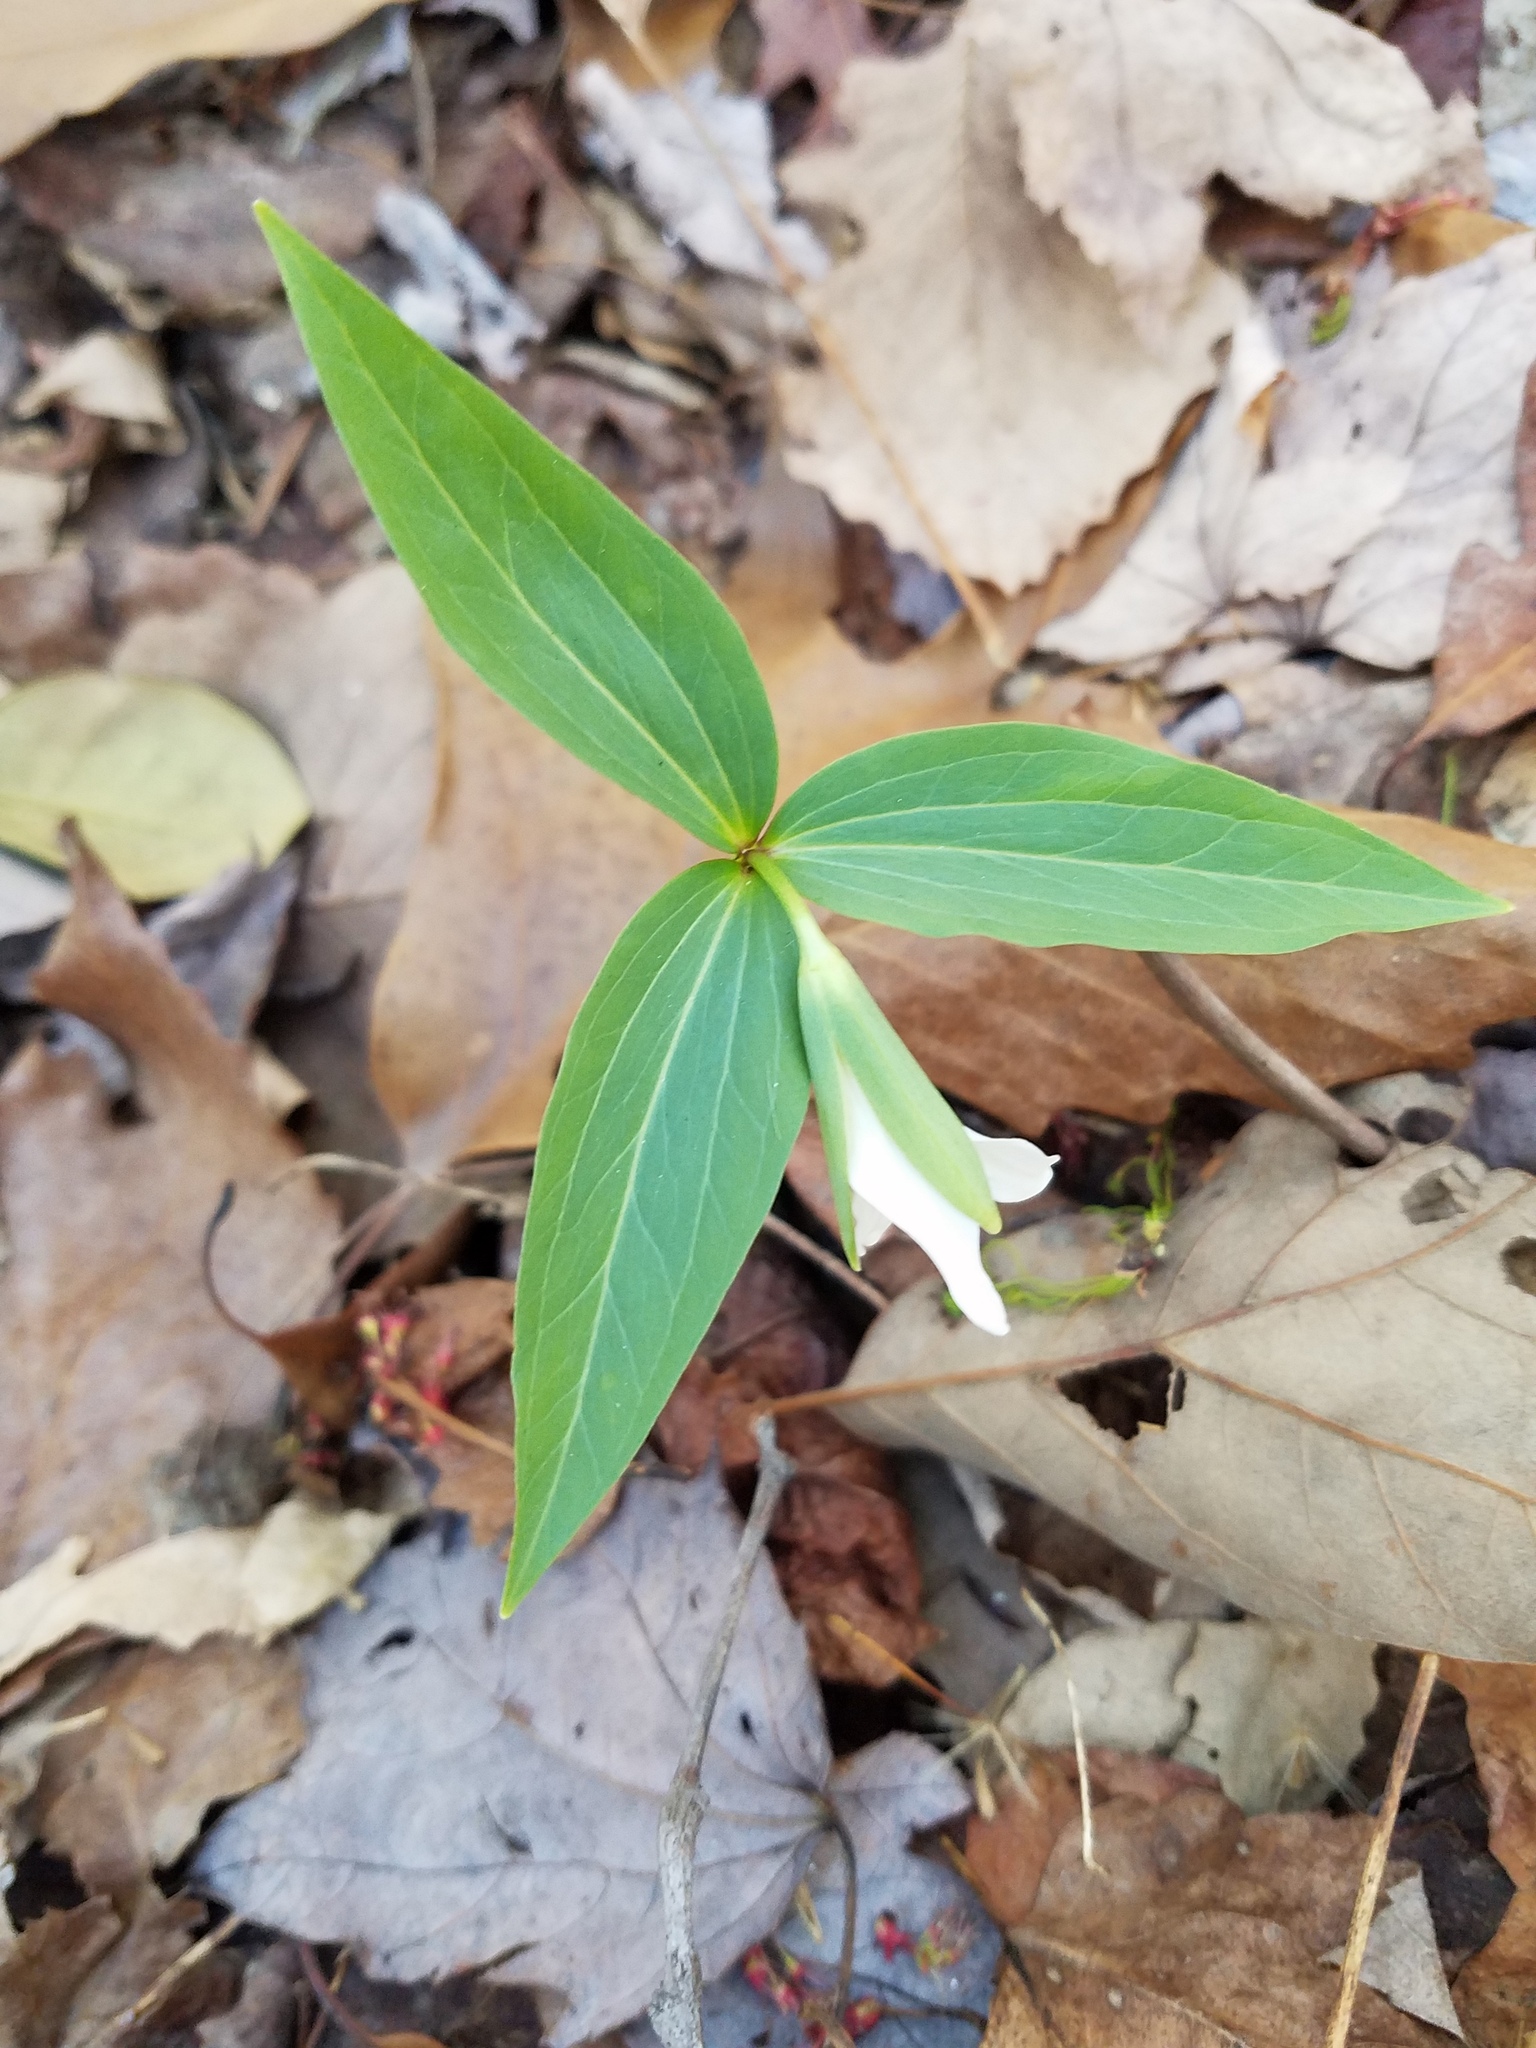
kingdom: Plantae
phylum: Tracheophyta
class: Liliopsida
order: Liliales
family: Melanthiaceae
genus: Trillium
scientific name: Trillium persistens
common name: Persistent trillium
